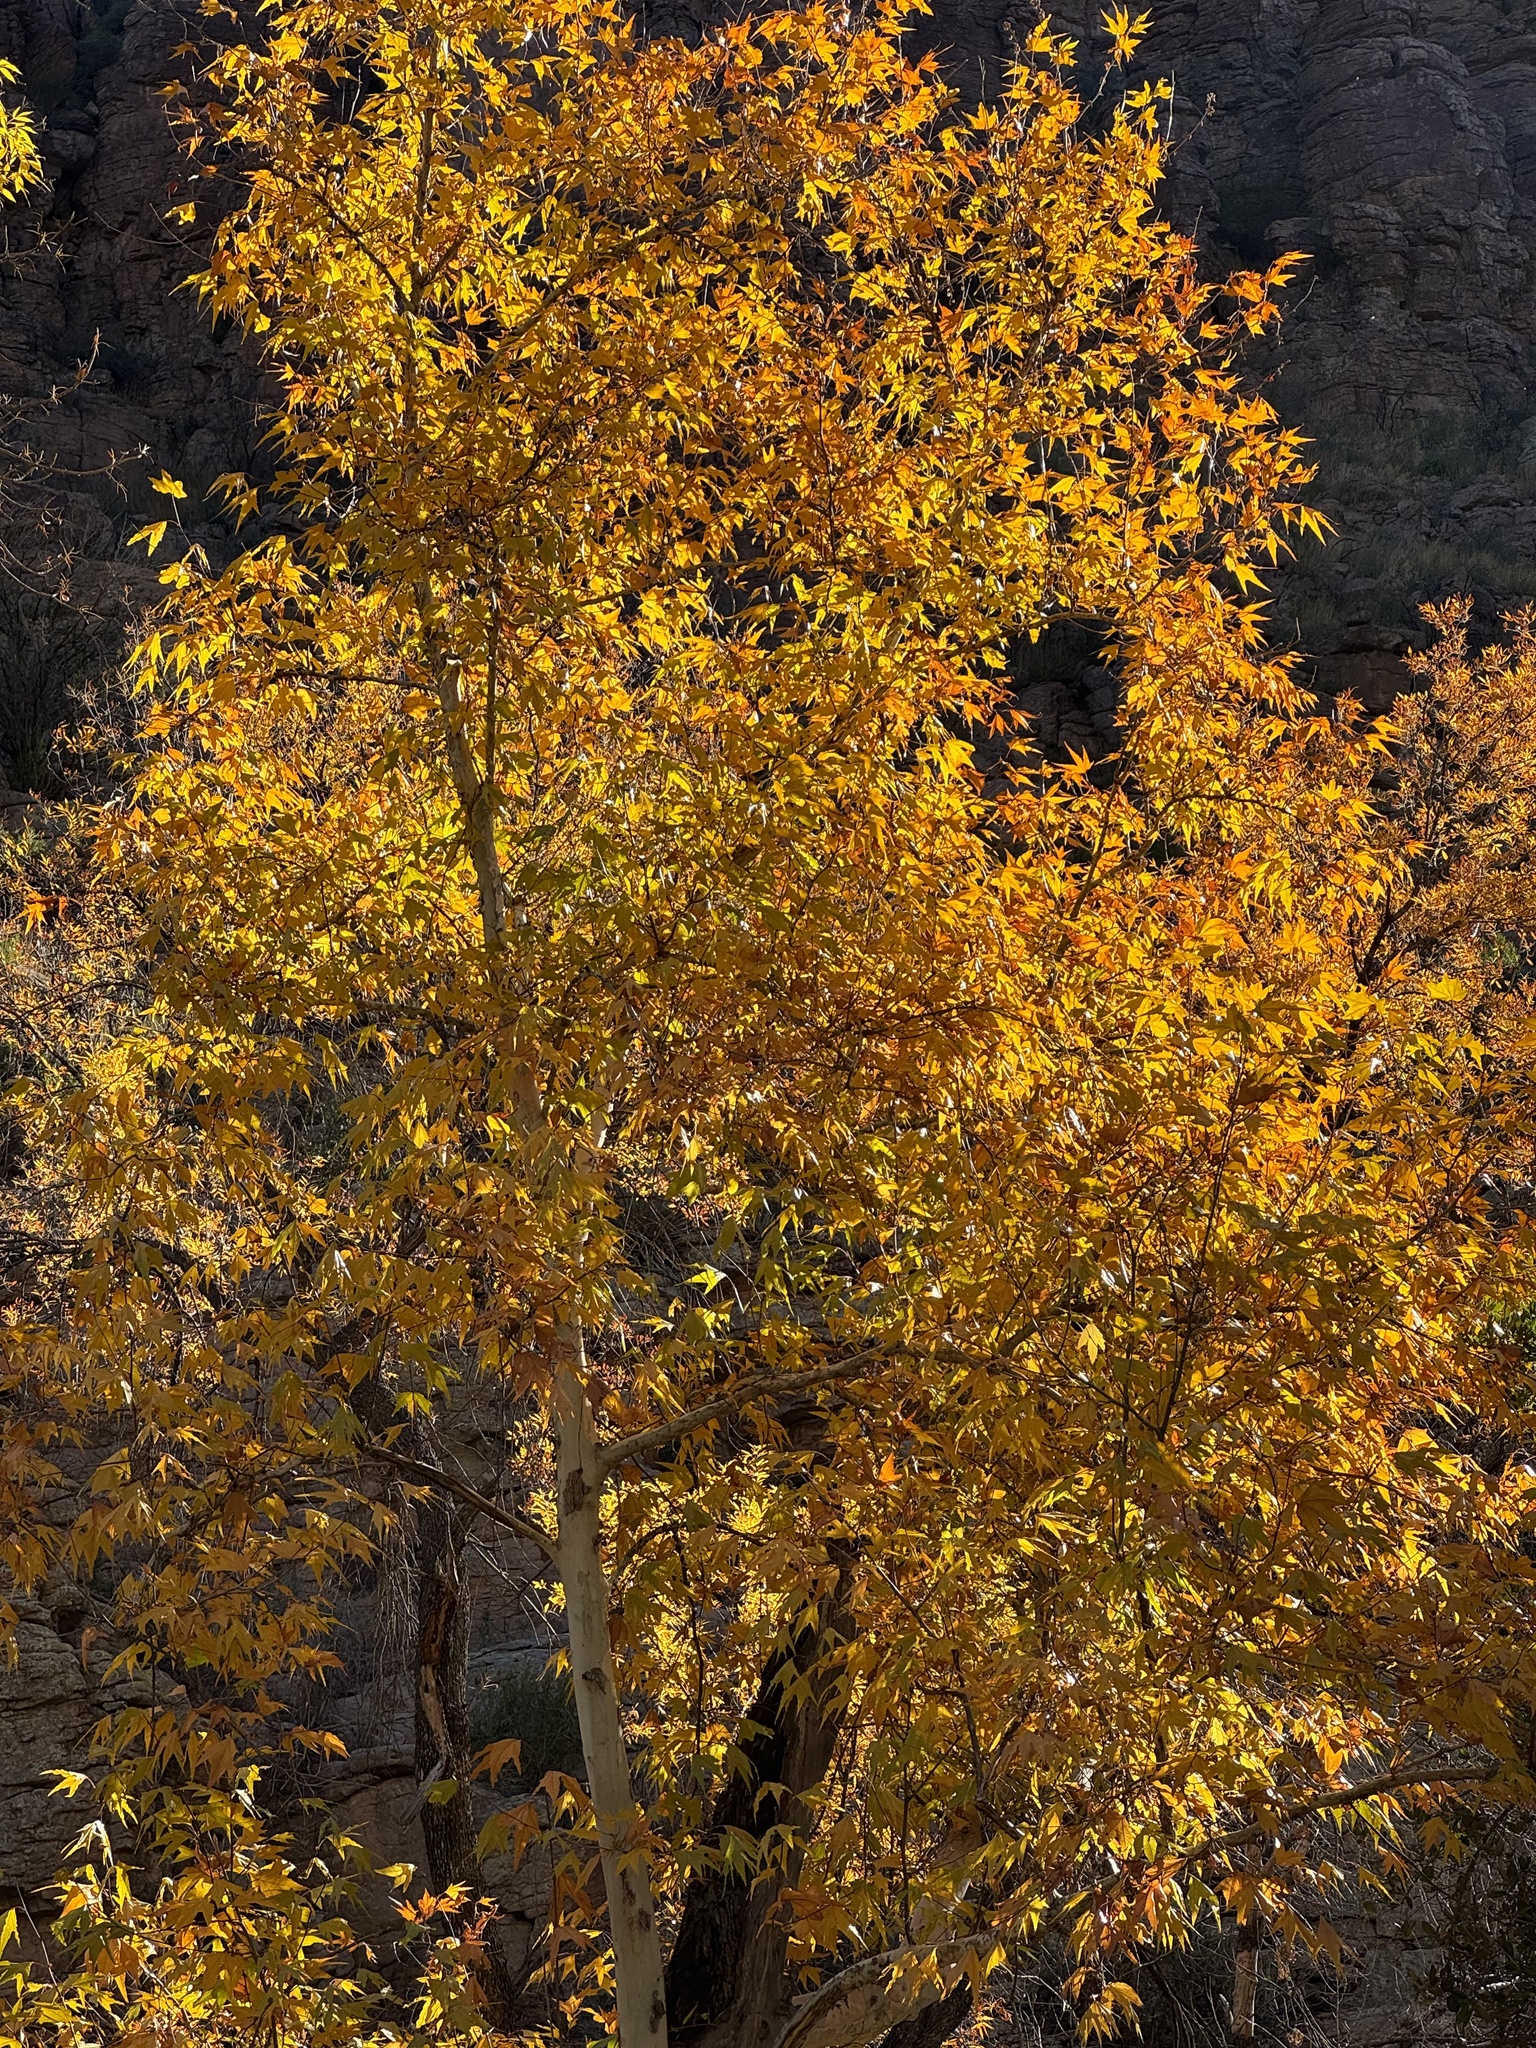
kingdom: Plantae
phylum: Tracheophyta
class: Magnoliopsida
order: Proteales
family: Platanaceae
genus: Platanus
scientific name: Platanus wrightii
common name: Arizona sycamore
